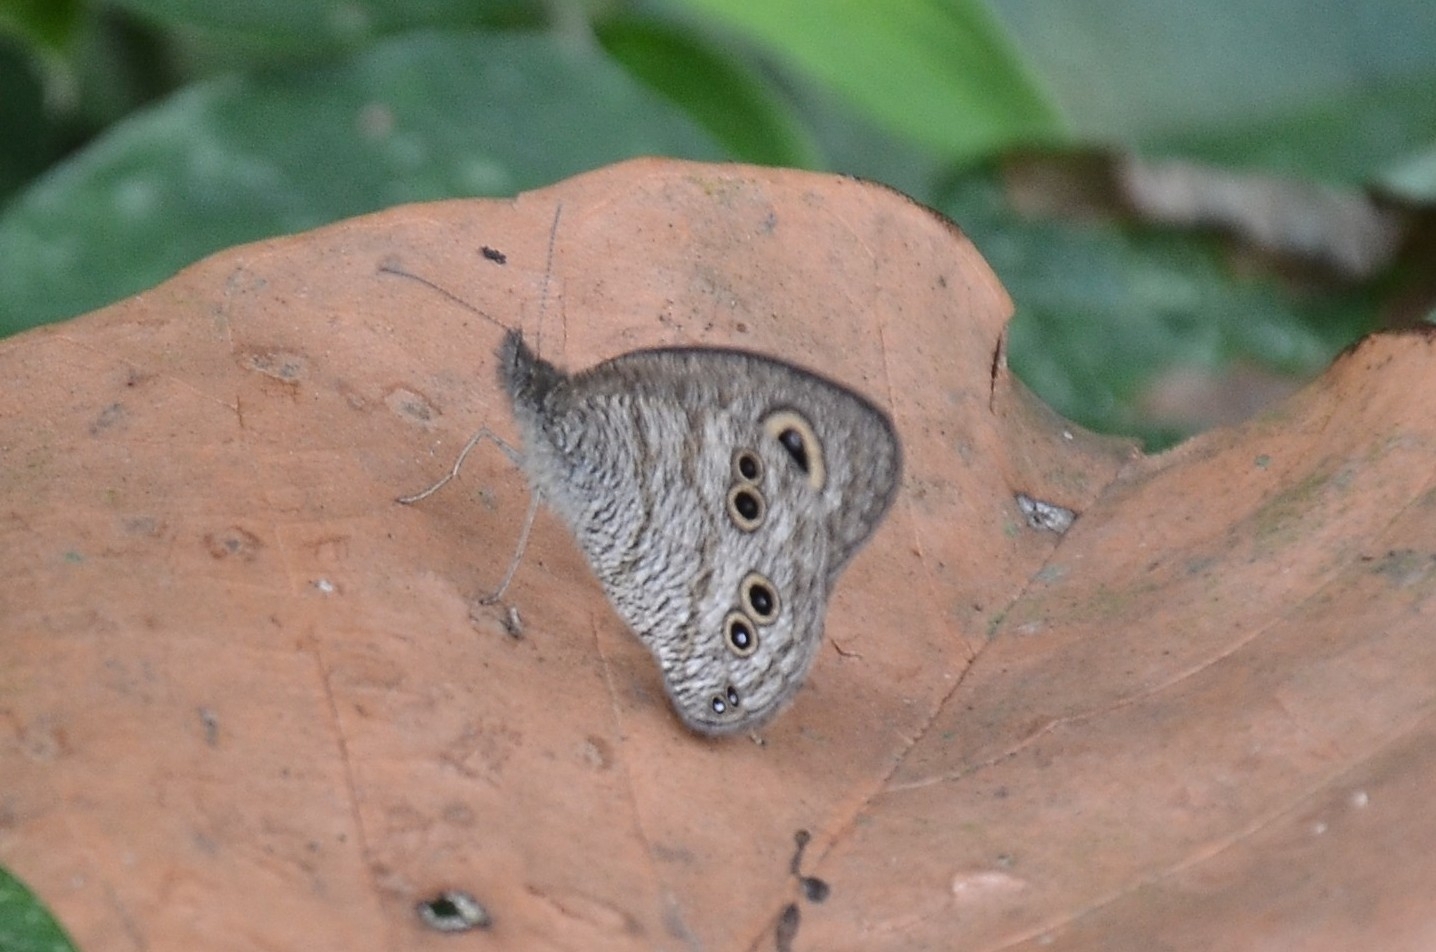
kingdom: Animalia
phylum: Arthropoda
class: Insecta
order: Lepidoptera
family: Nymphalidae
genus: Ypthima
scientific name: Ypthima baldus
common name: Common five-ring
